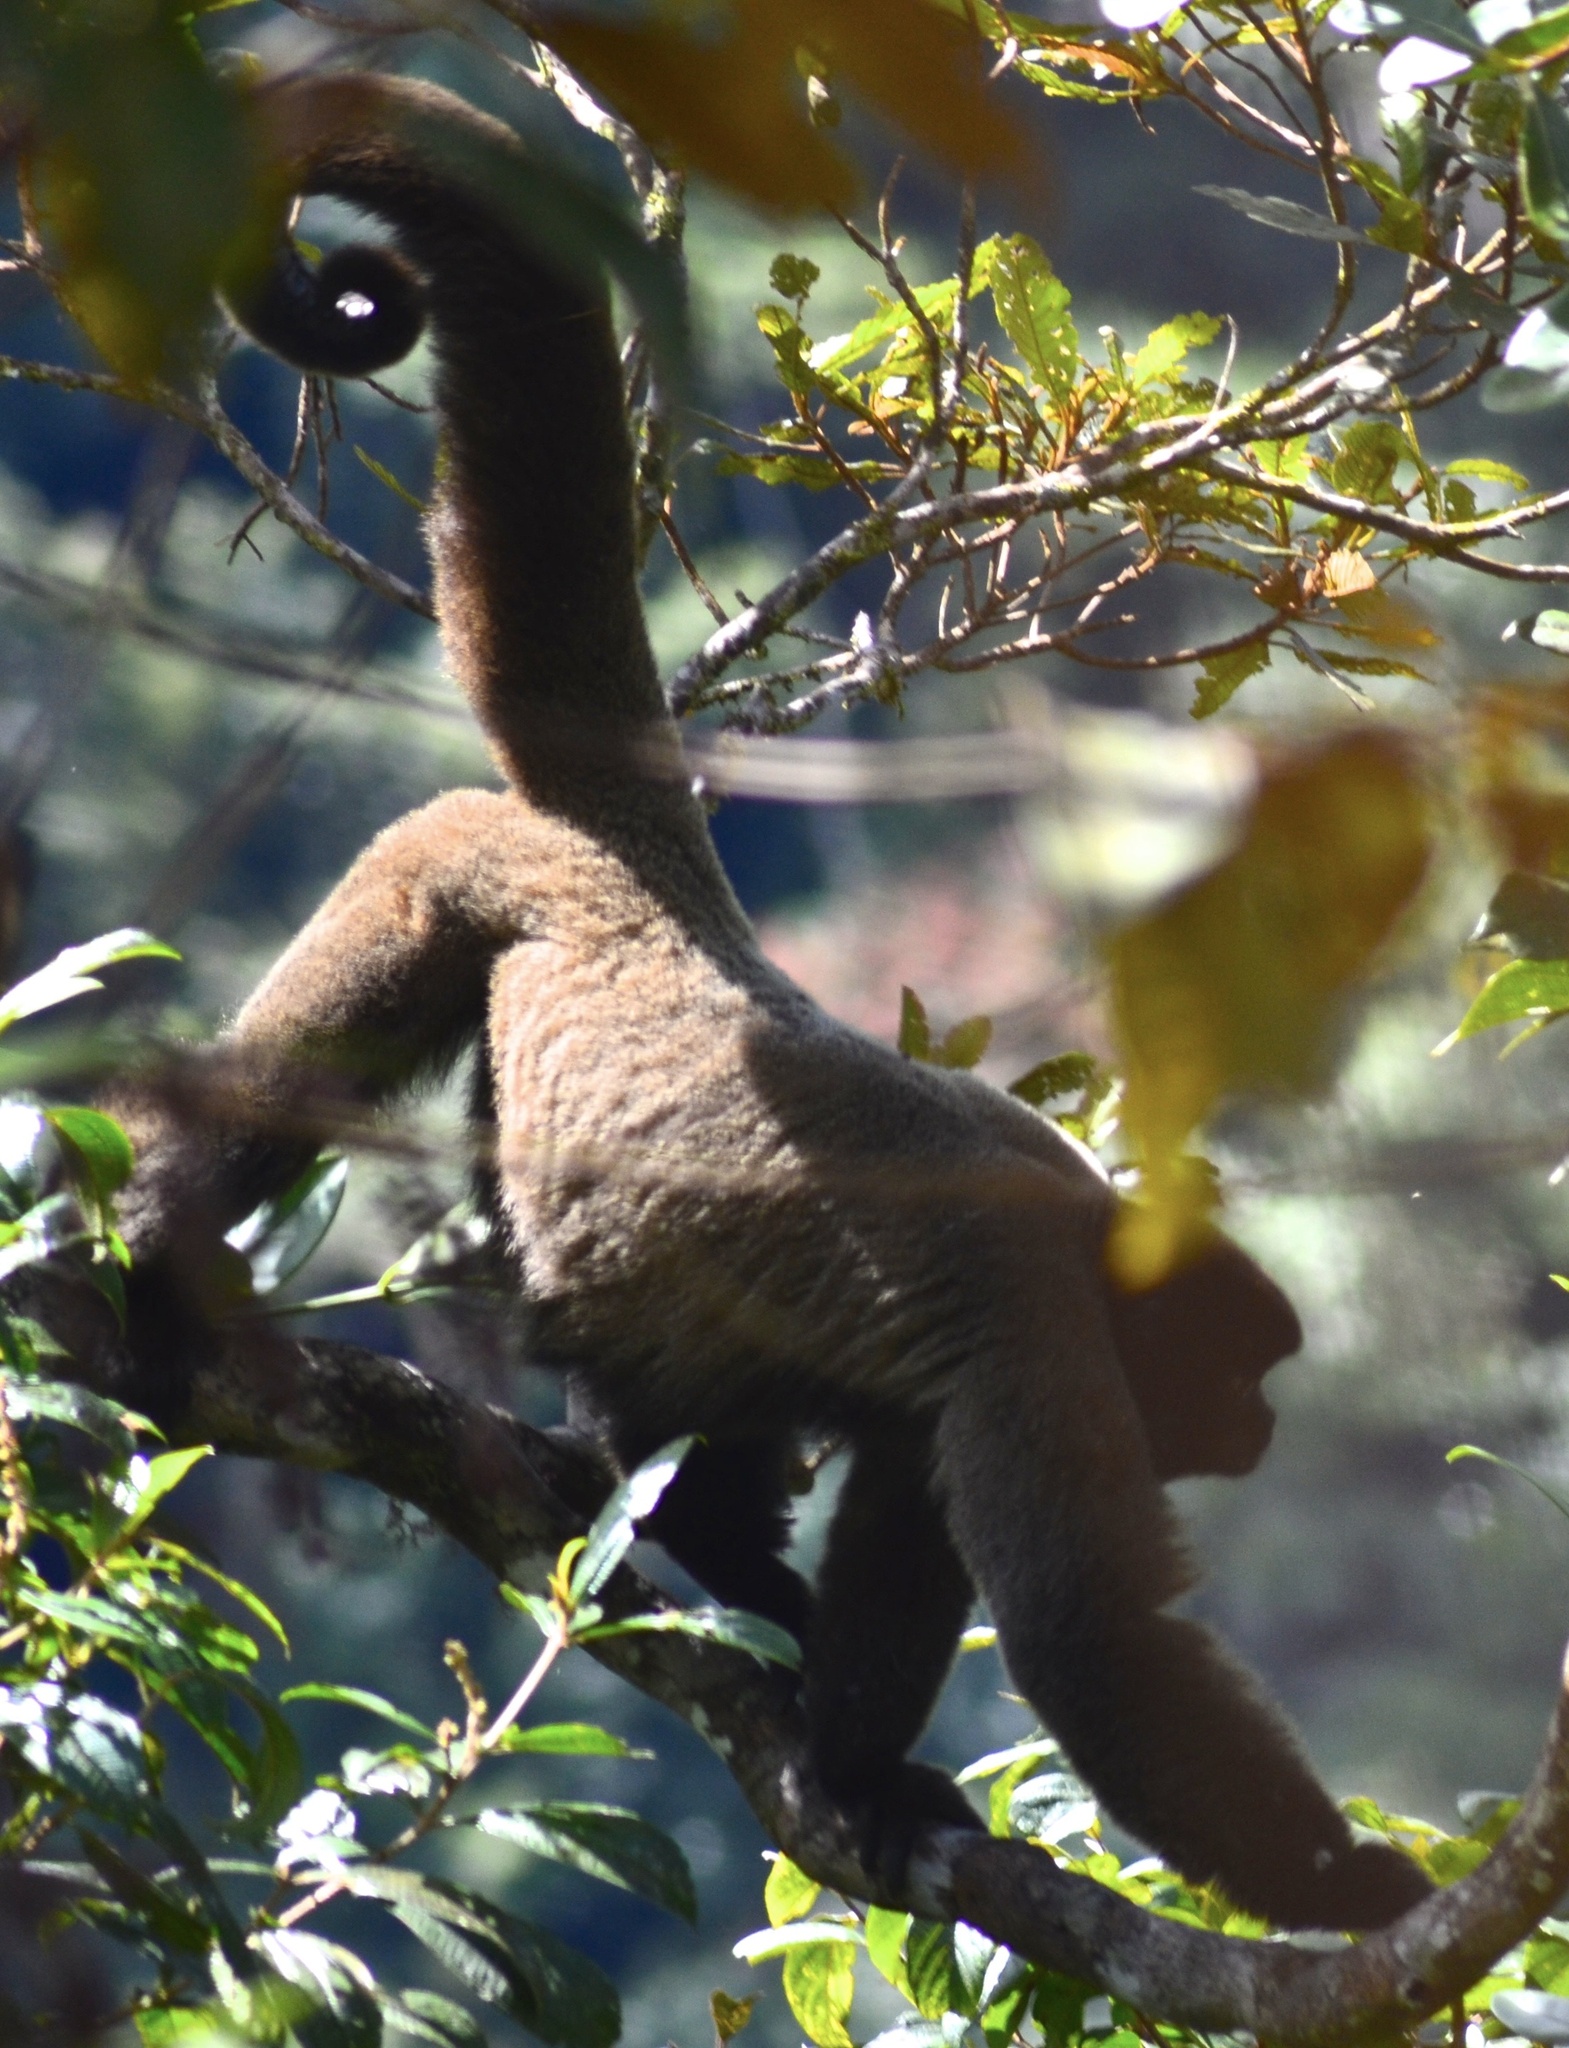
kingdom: Animalia
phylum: Chordata
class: Mammalia
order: Primates
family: Atelidae
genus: Lagothrix
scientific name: Lagothrix lagothricha
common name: Brown woolly monkey
